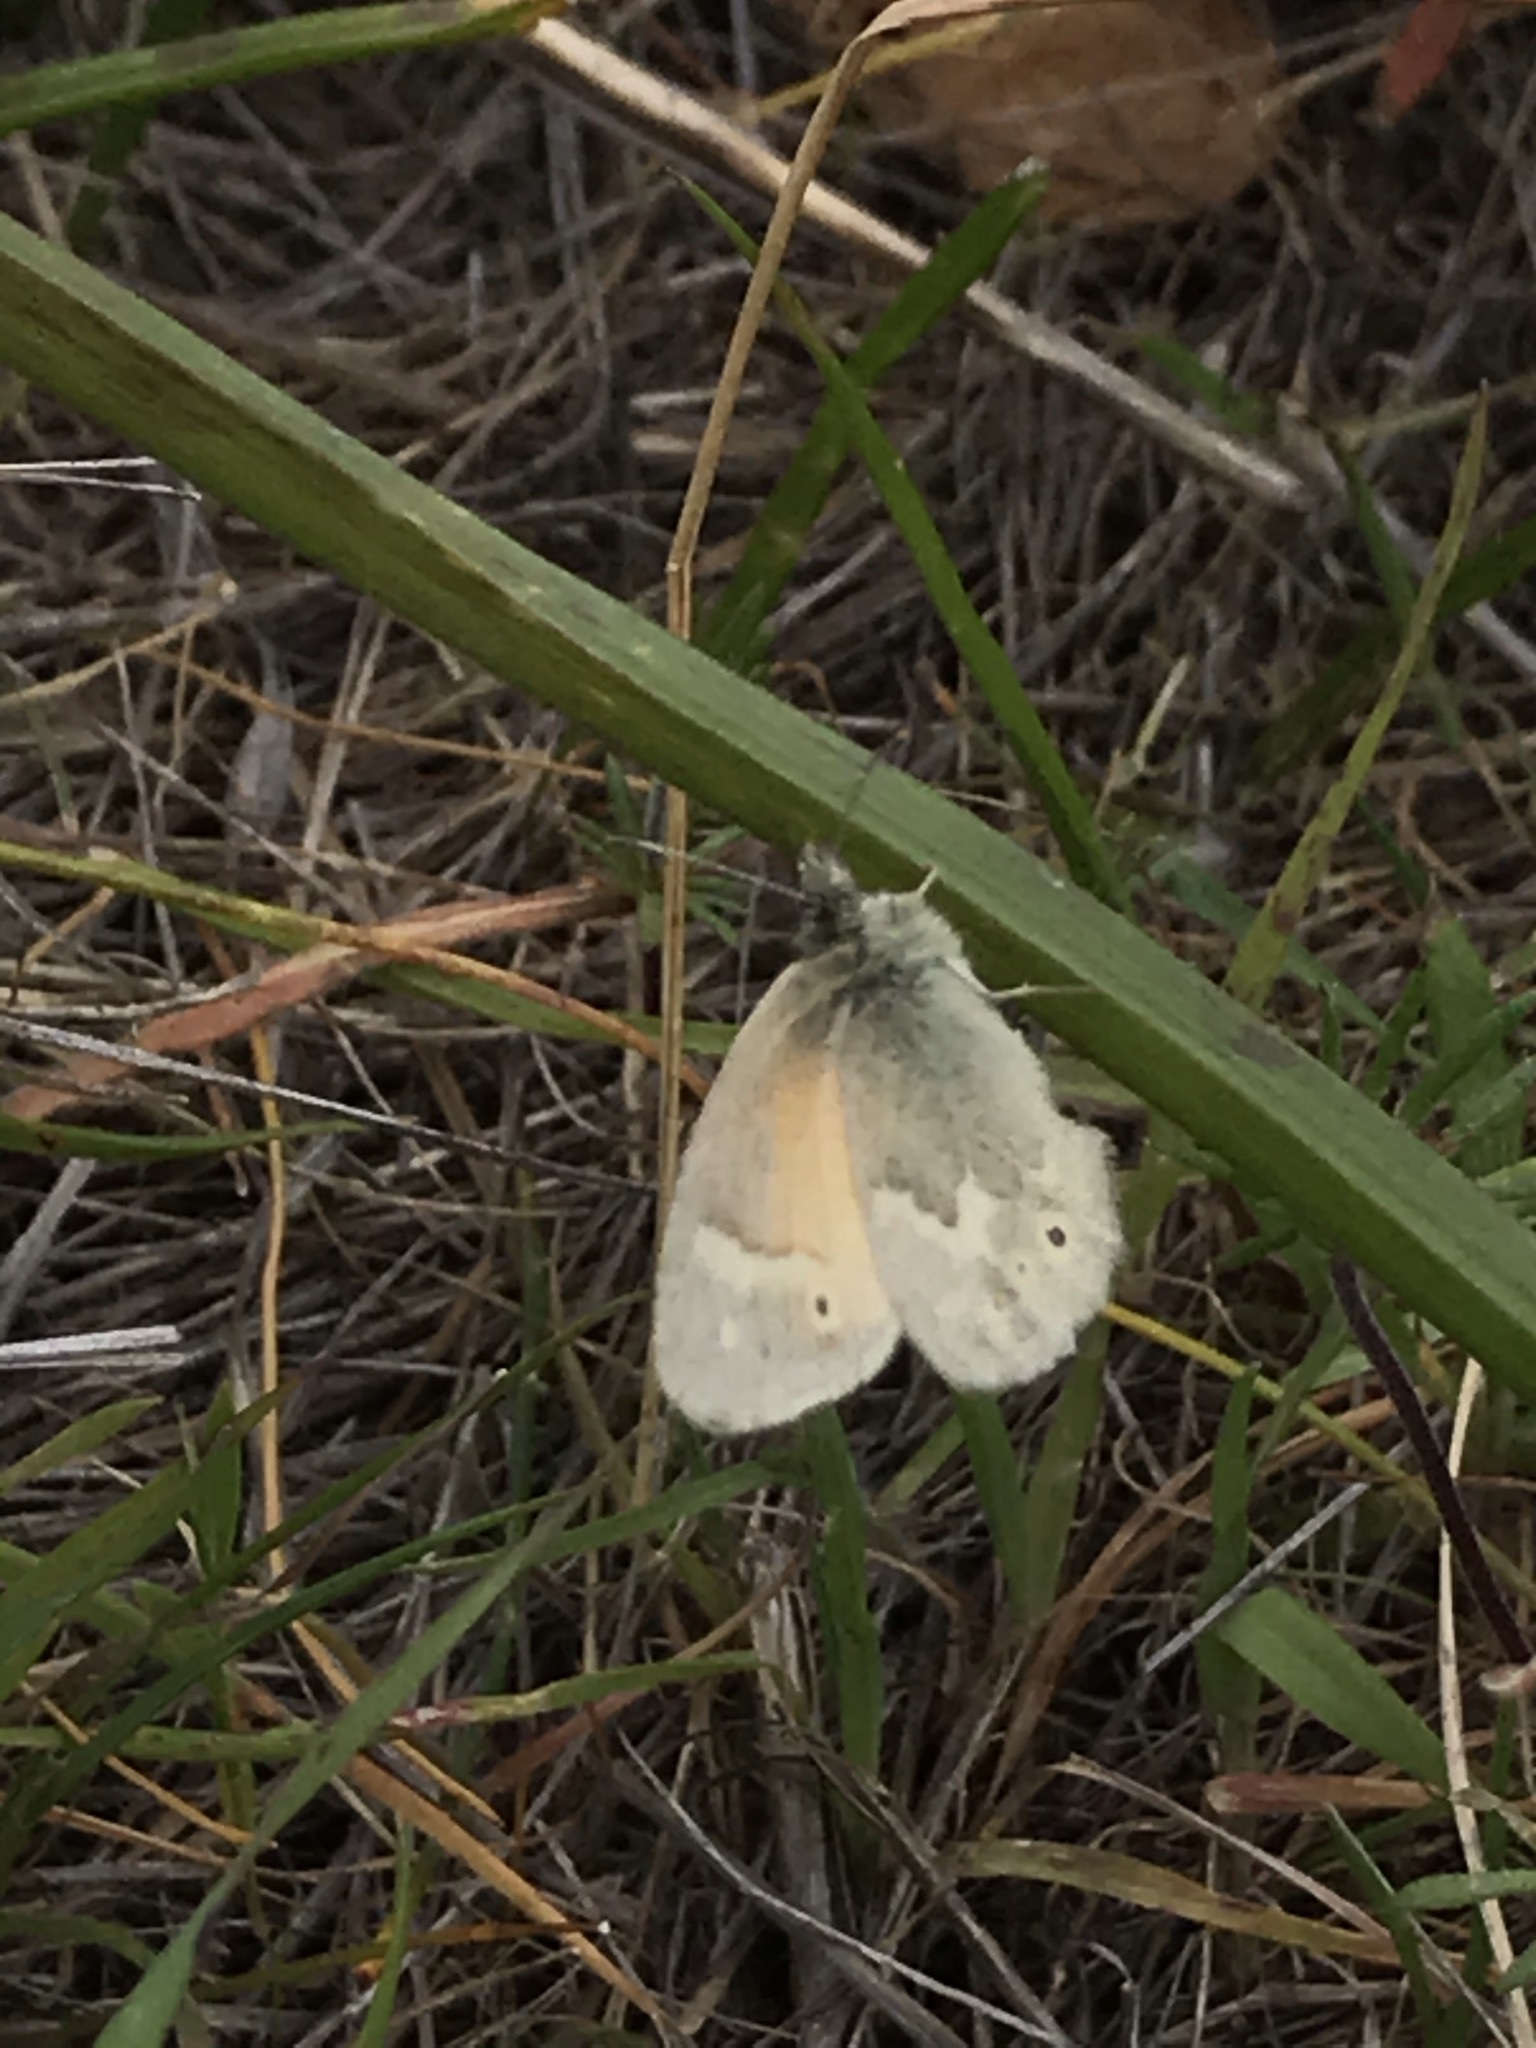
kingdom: Animalia
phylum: Arthropoda
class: Insecta
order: Lepidoptera
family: Nymphalidae
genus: Coenonympha
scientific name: Coenonympha california
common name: Common ringlet
